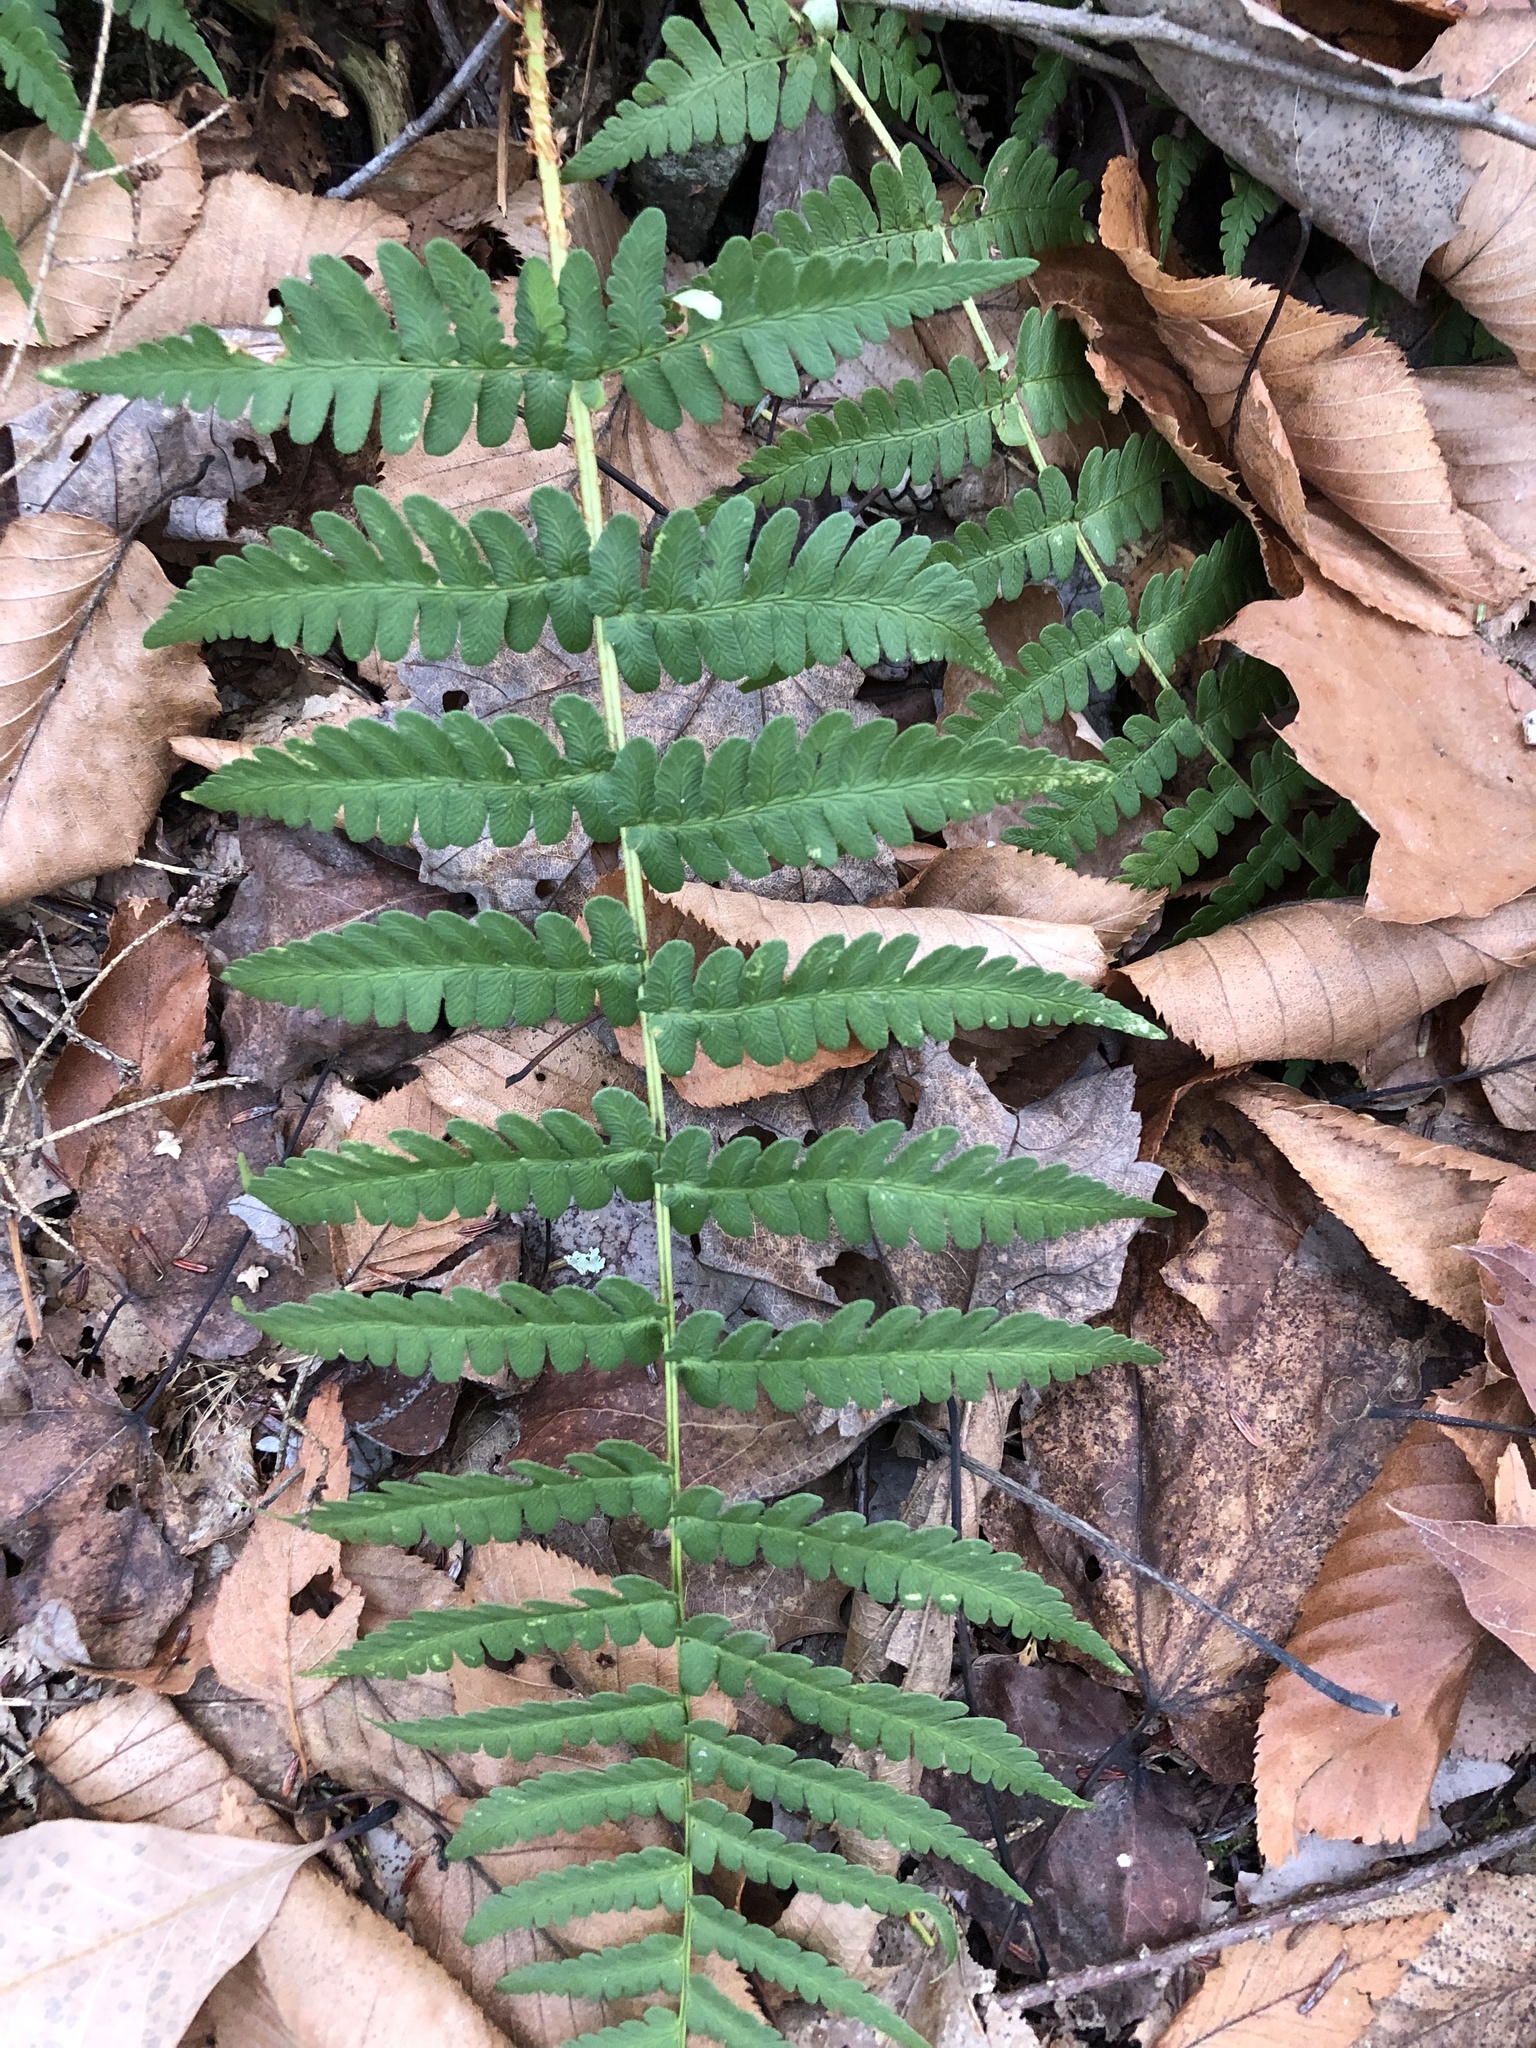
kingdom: Plantae
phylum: Tracheophyta
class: Polypodiopsida
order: Polypodiales
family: Dryopteridaceae
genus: Dryopteris
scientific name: Dryopteris marginalis
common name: Marginal wood fern
